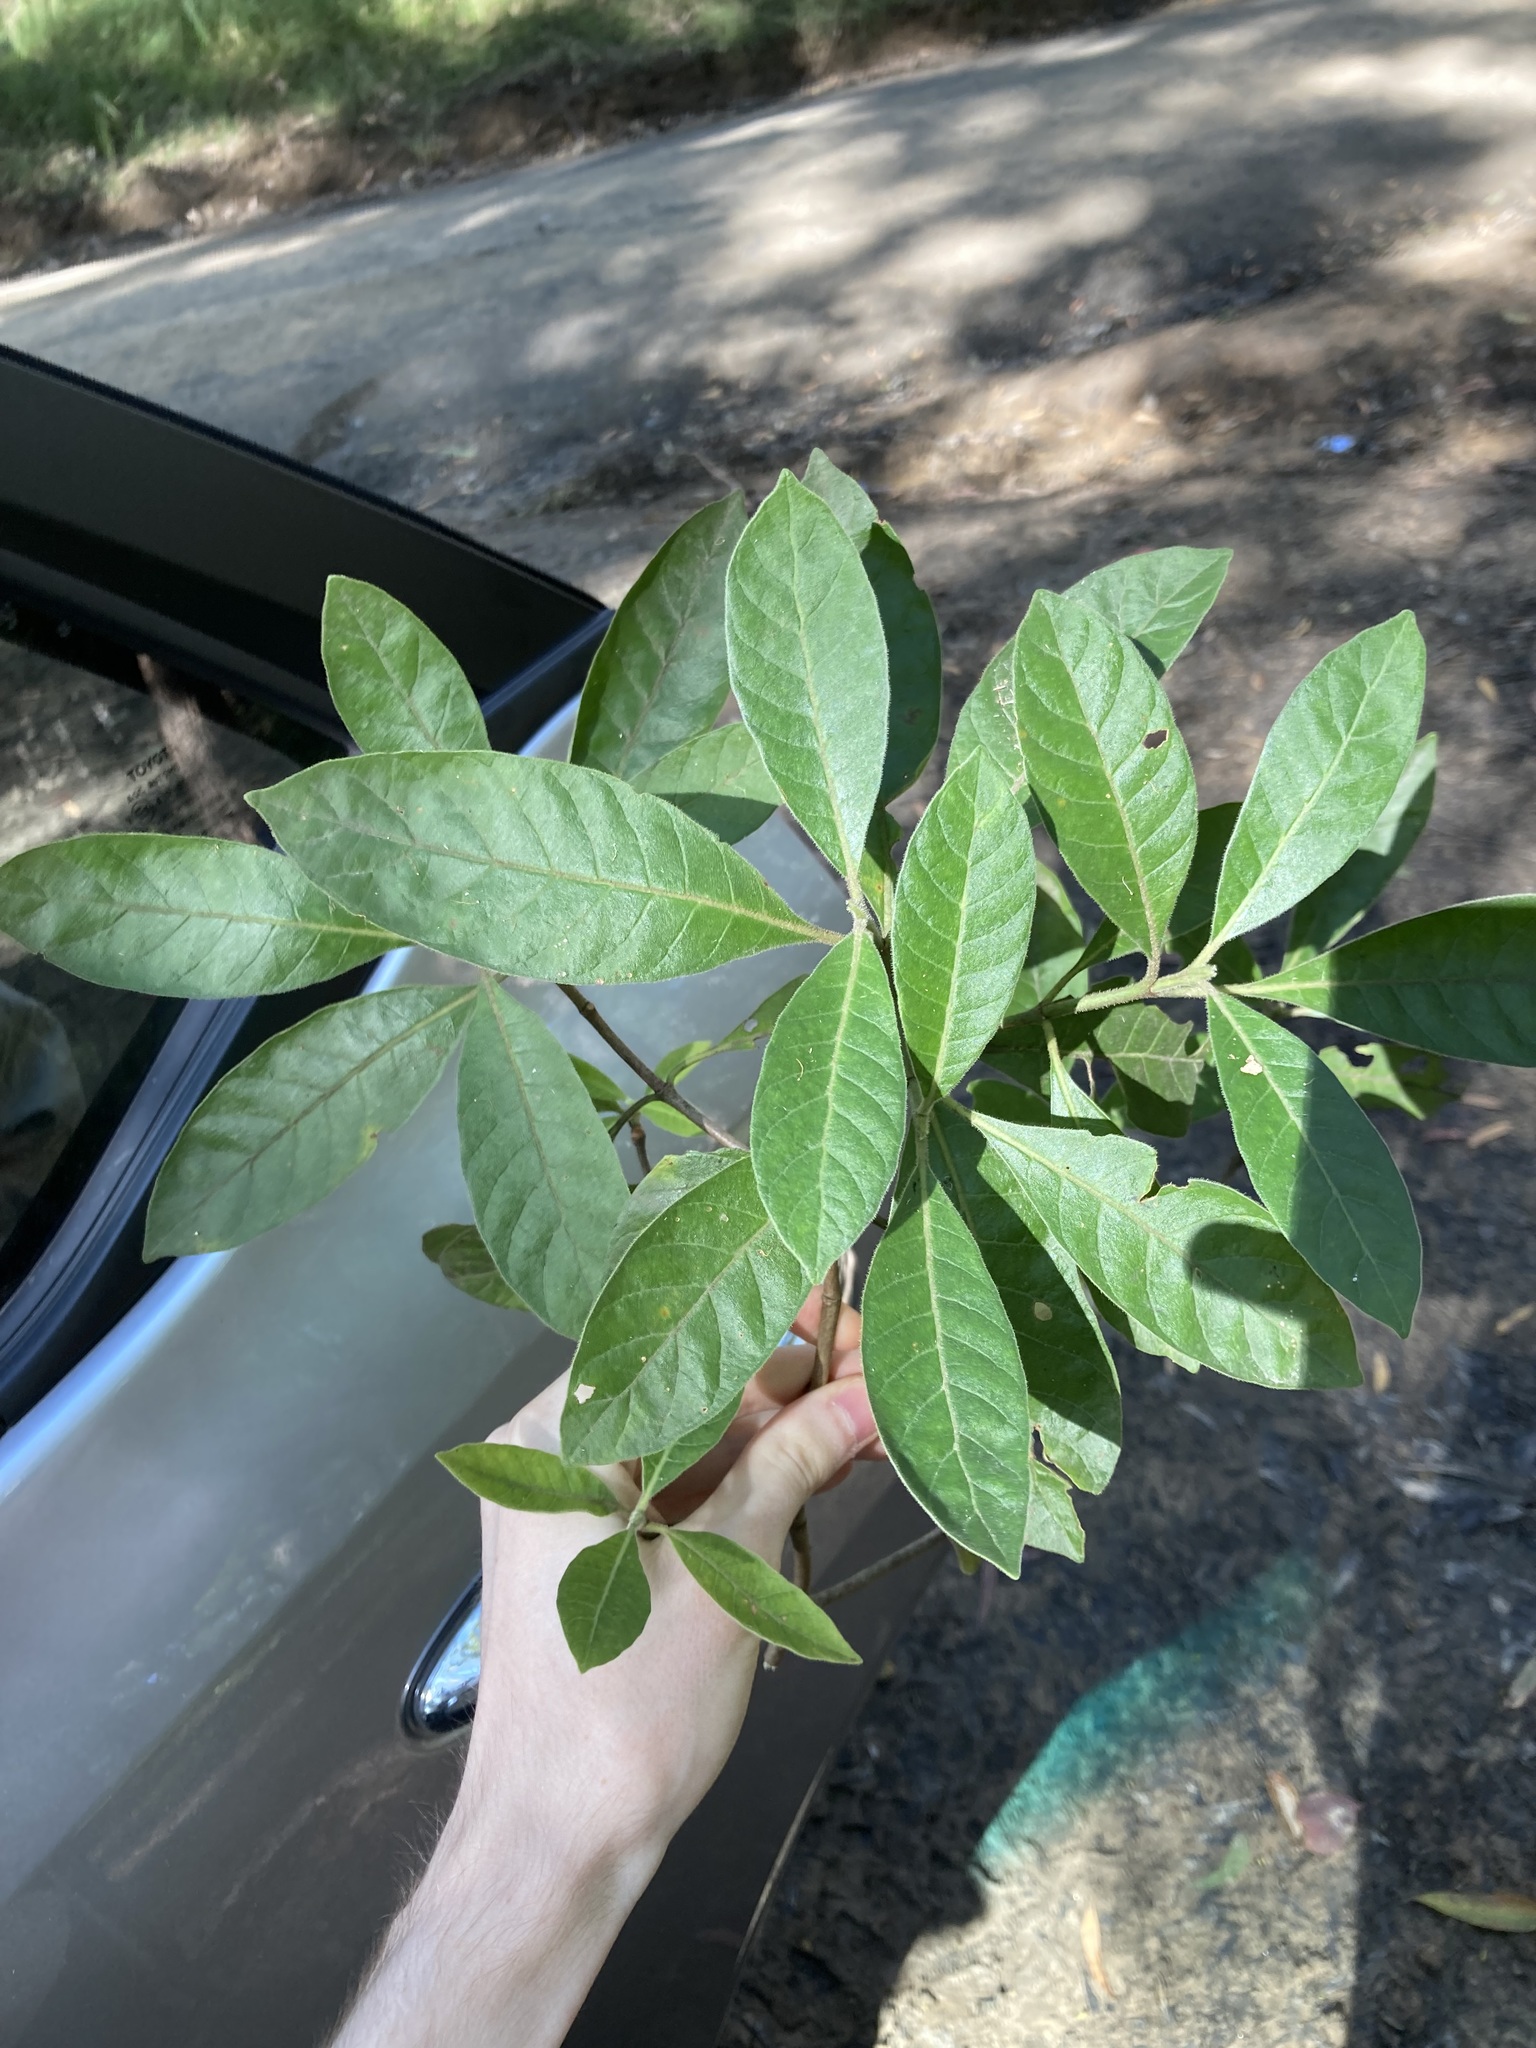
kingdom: Plantae
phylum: Tracheophyta
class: Magnoliopsida
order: Gentianales
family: Rubiaceae
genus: Psychotria
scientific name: Psychotria loniceroides
